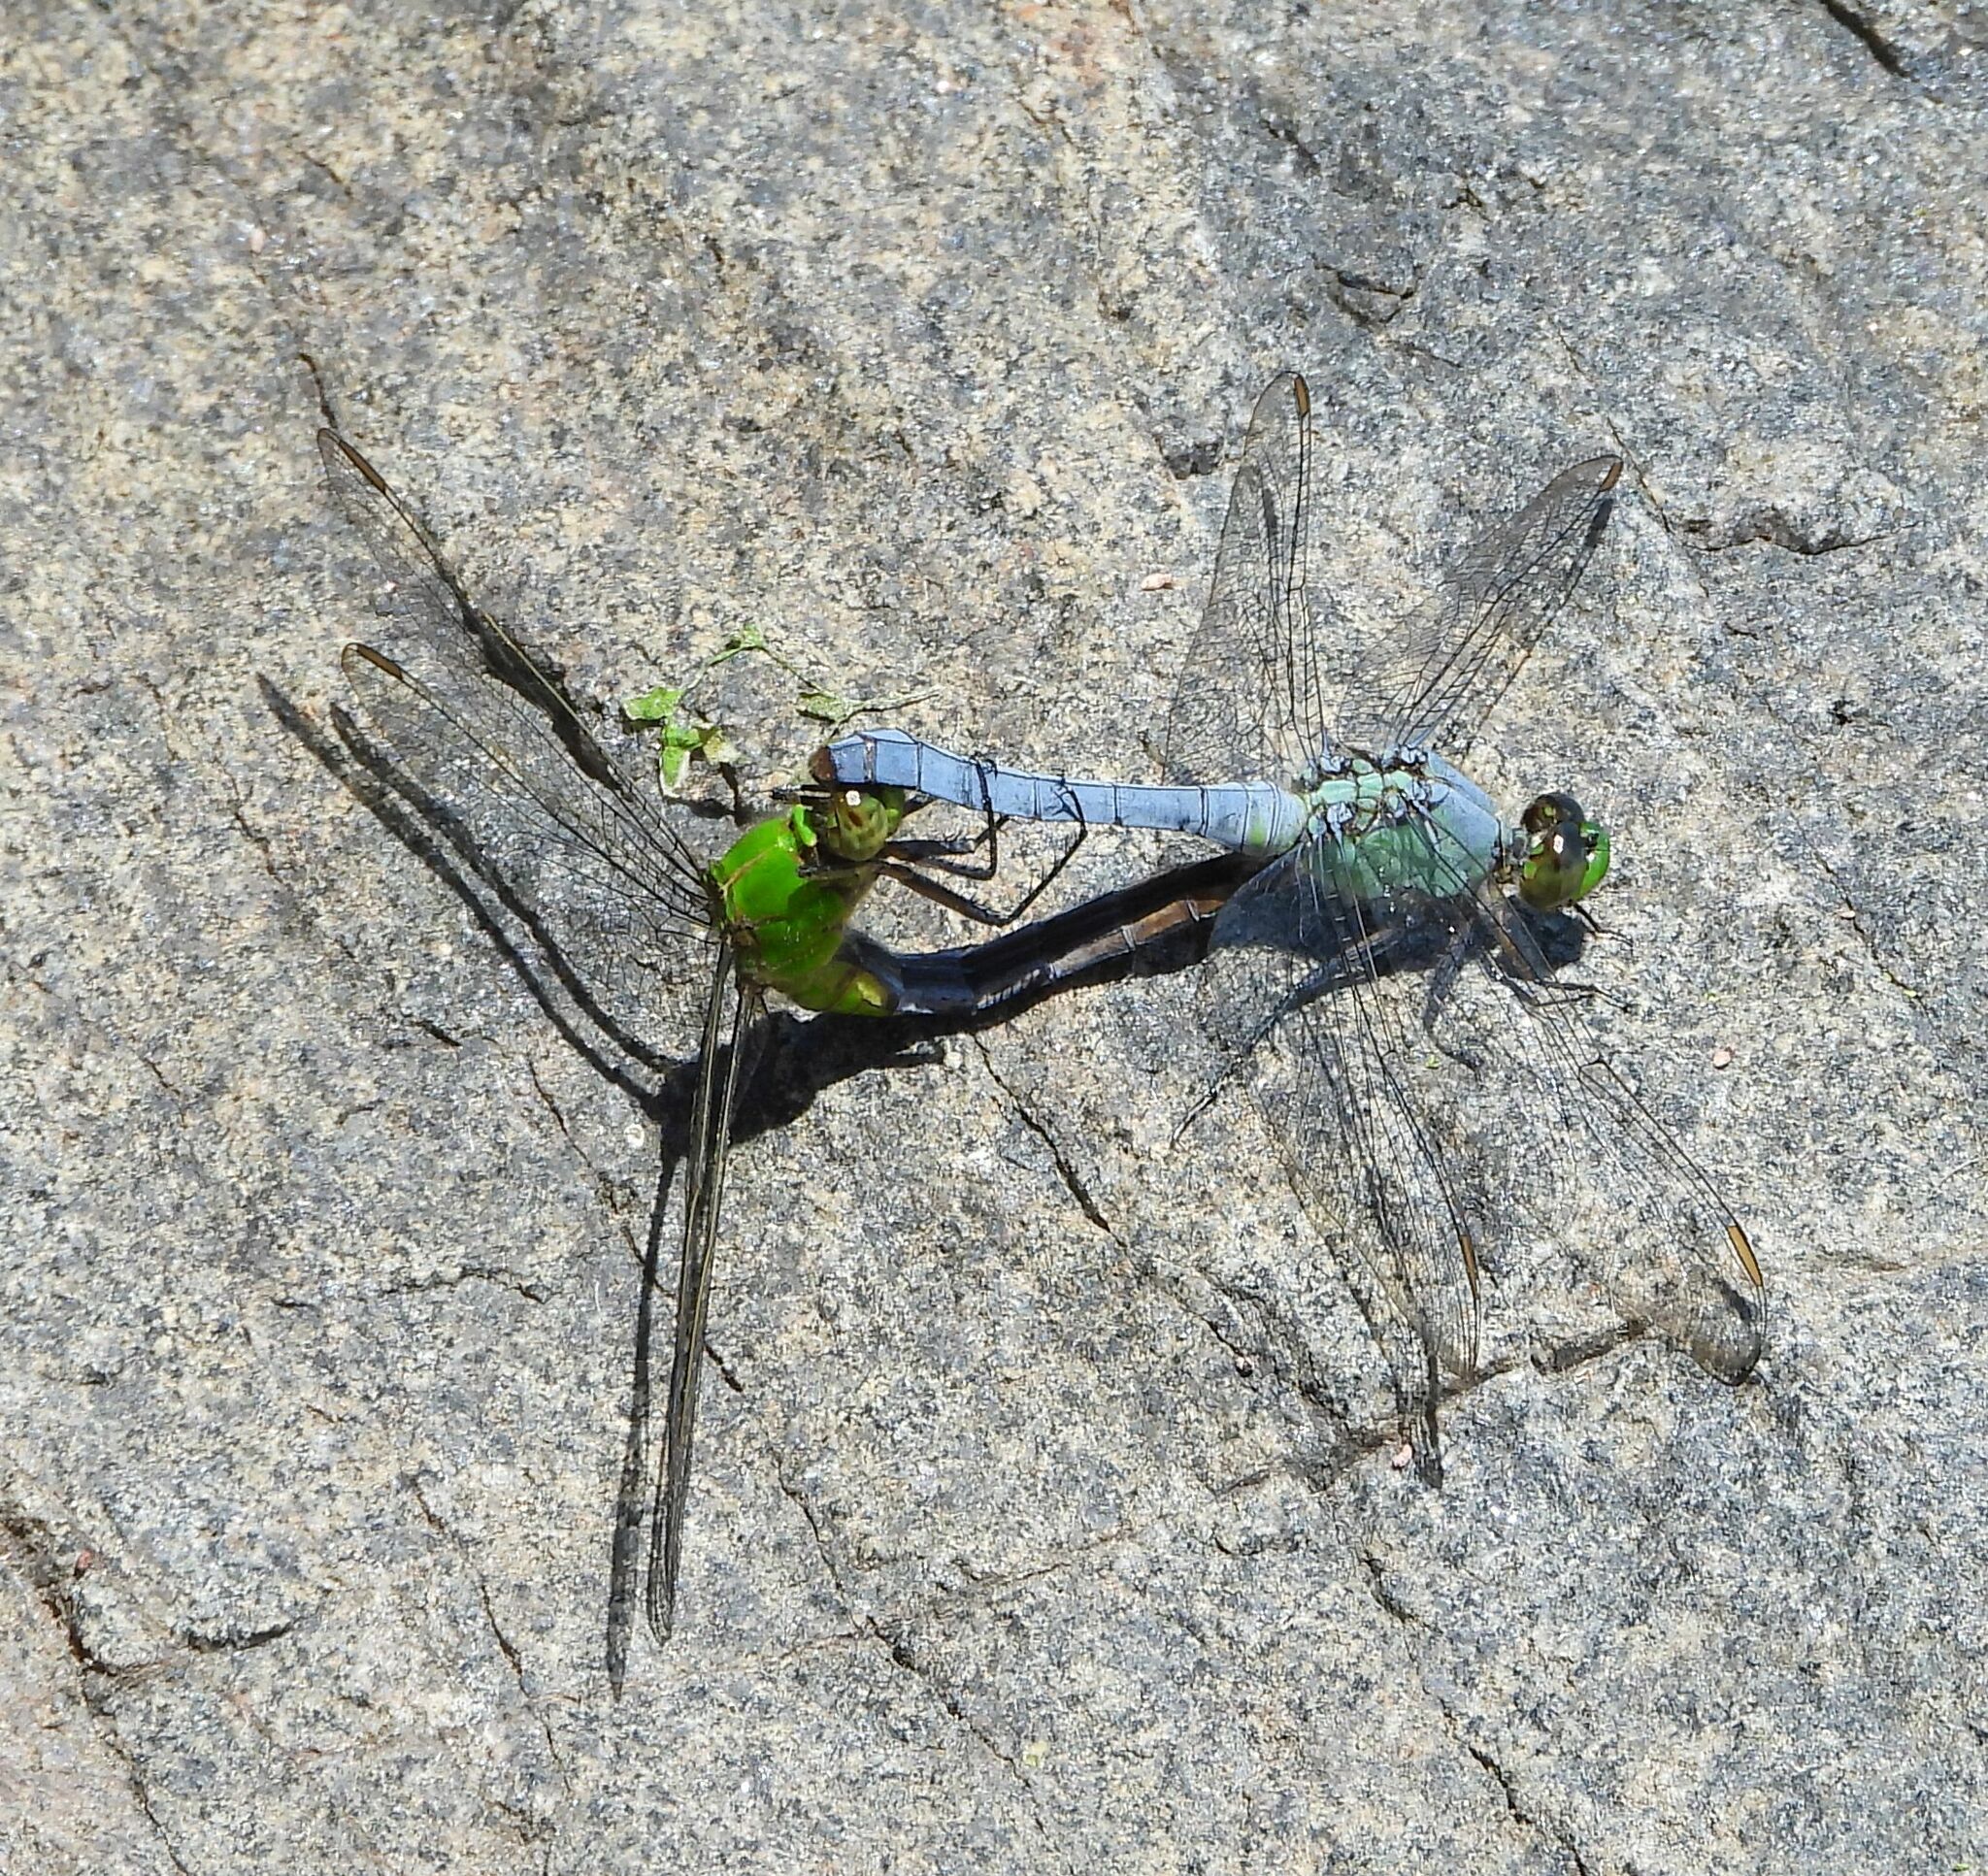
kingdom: Animalia
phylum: Arthropoda
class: Insecta
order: Odonata
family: Libellulidae
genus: Erythemis
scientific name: Erythemis simplicicollis
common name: Eastern pondhawk
